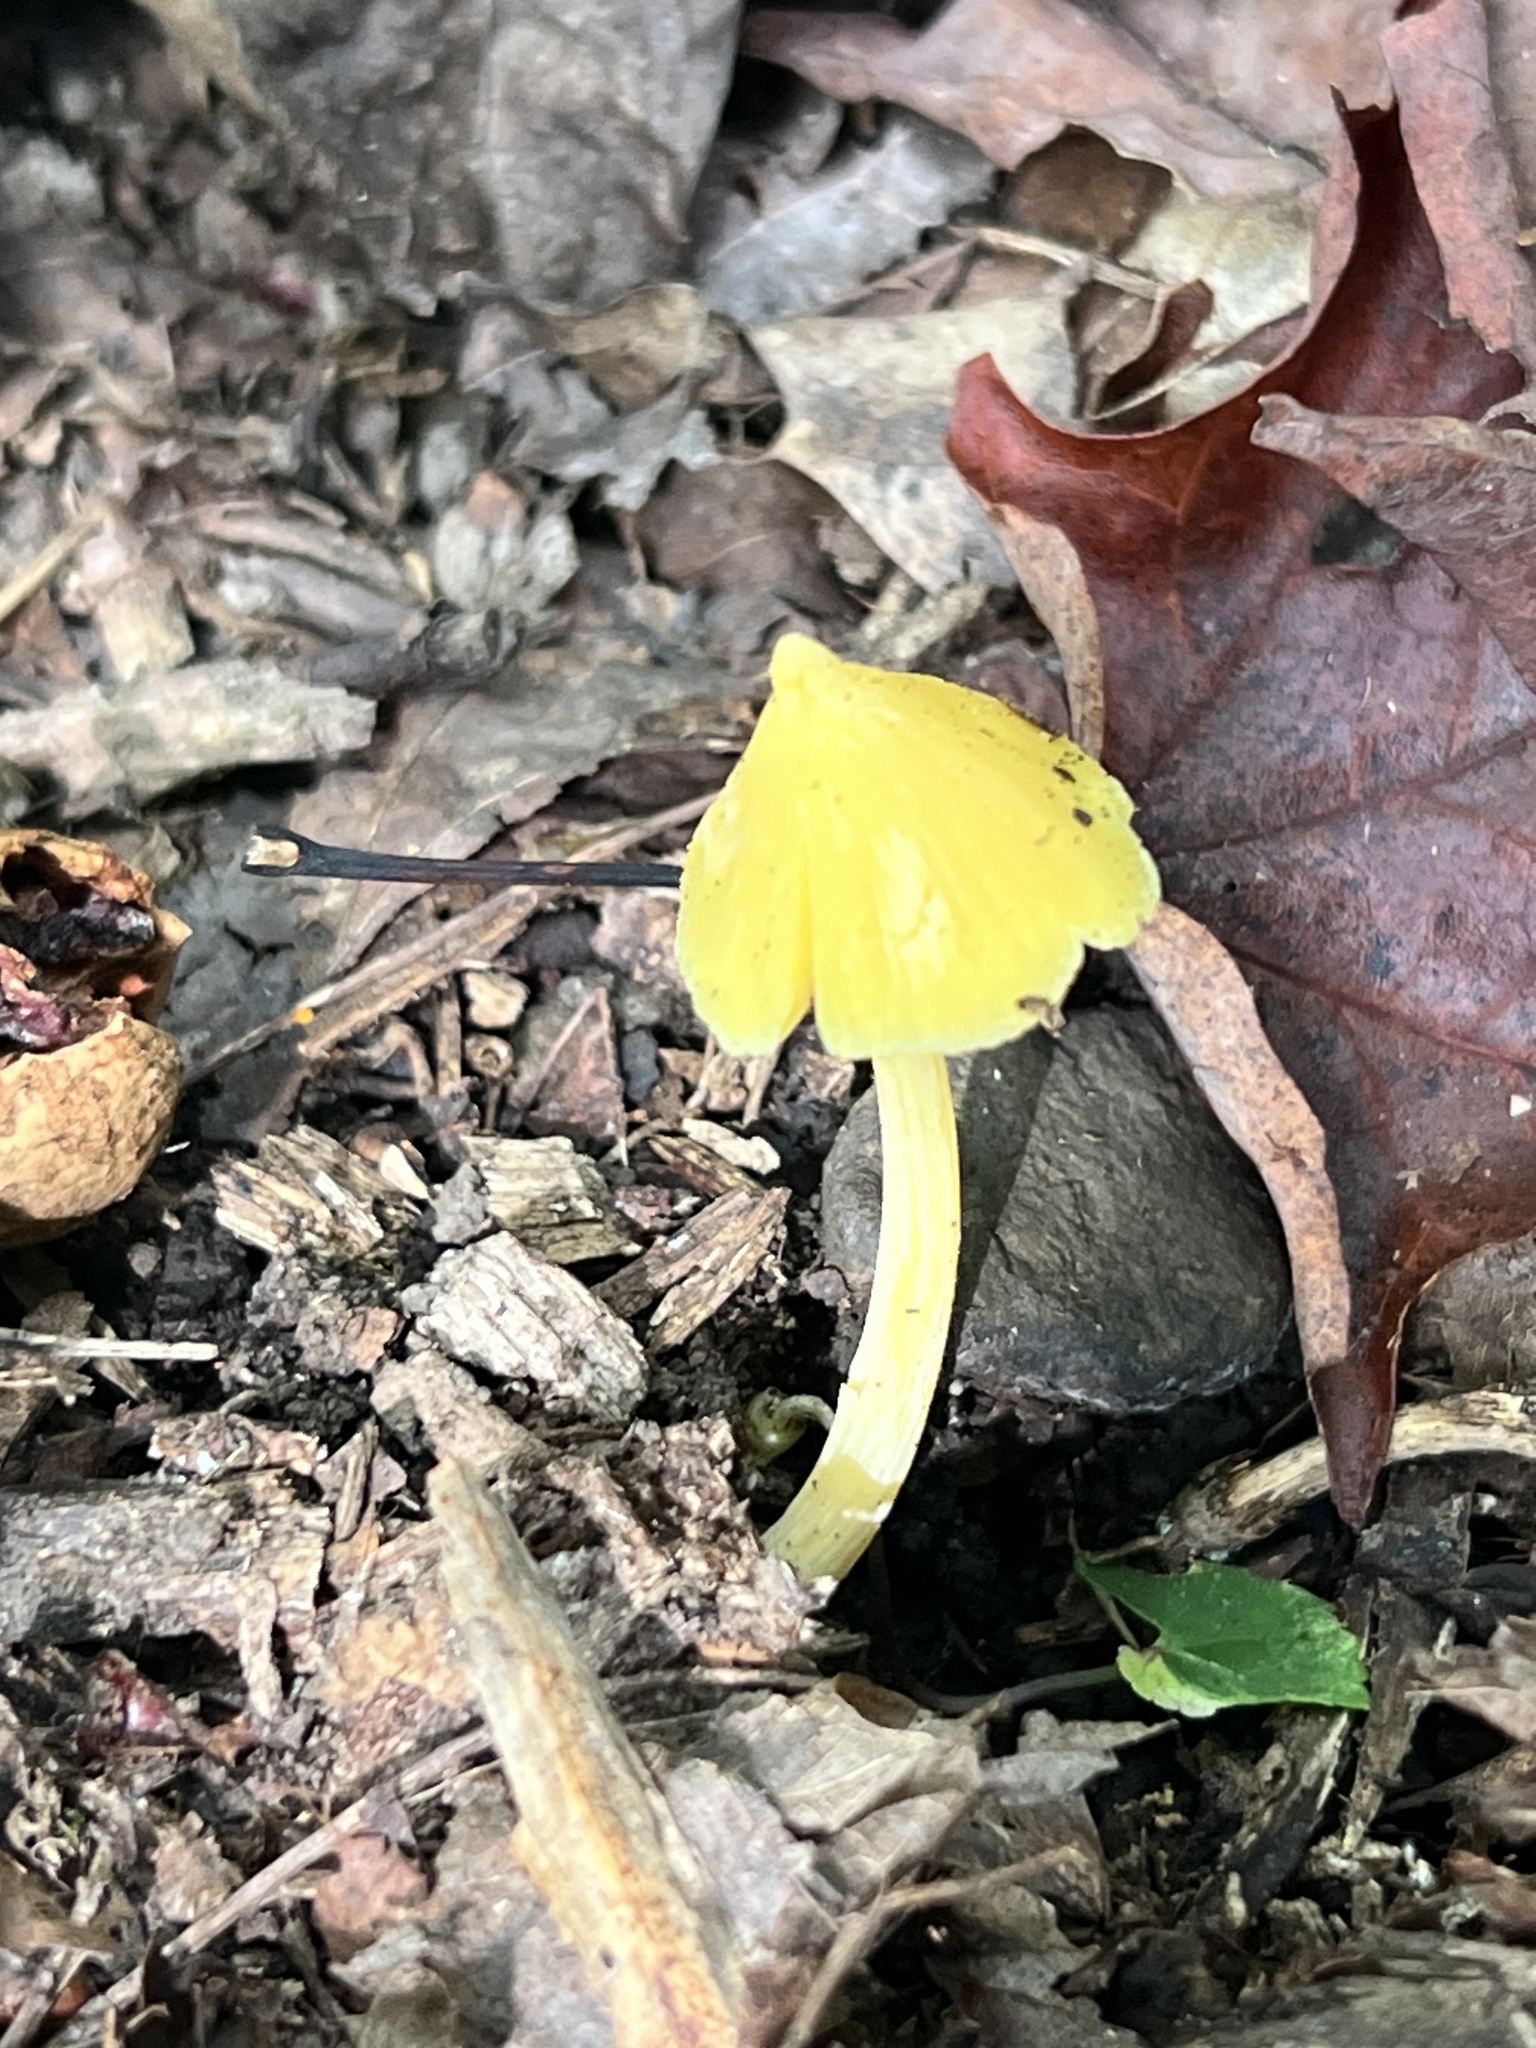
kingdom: Fungi
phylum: Basidiomycota
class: Agaricomycetes
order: Agaricales
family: Entolomataceae
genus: Entoloma
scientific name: Entoloma murrayi
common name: Yellow unicorn entoloma
